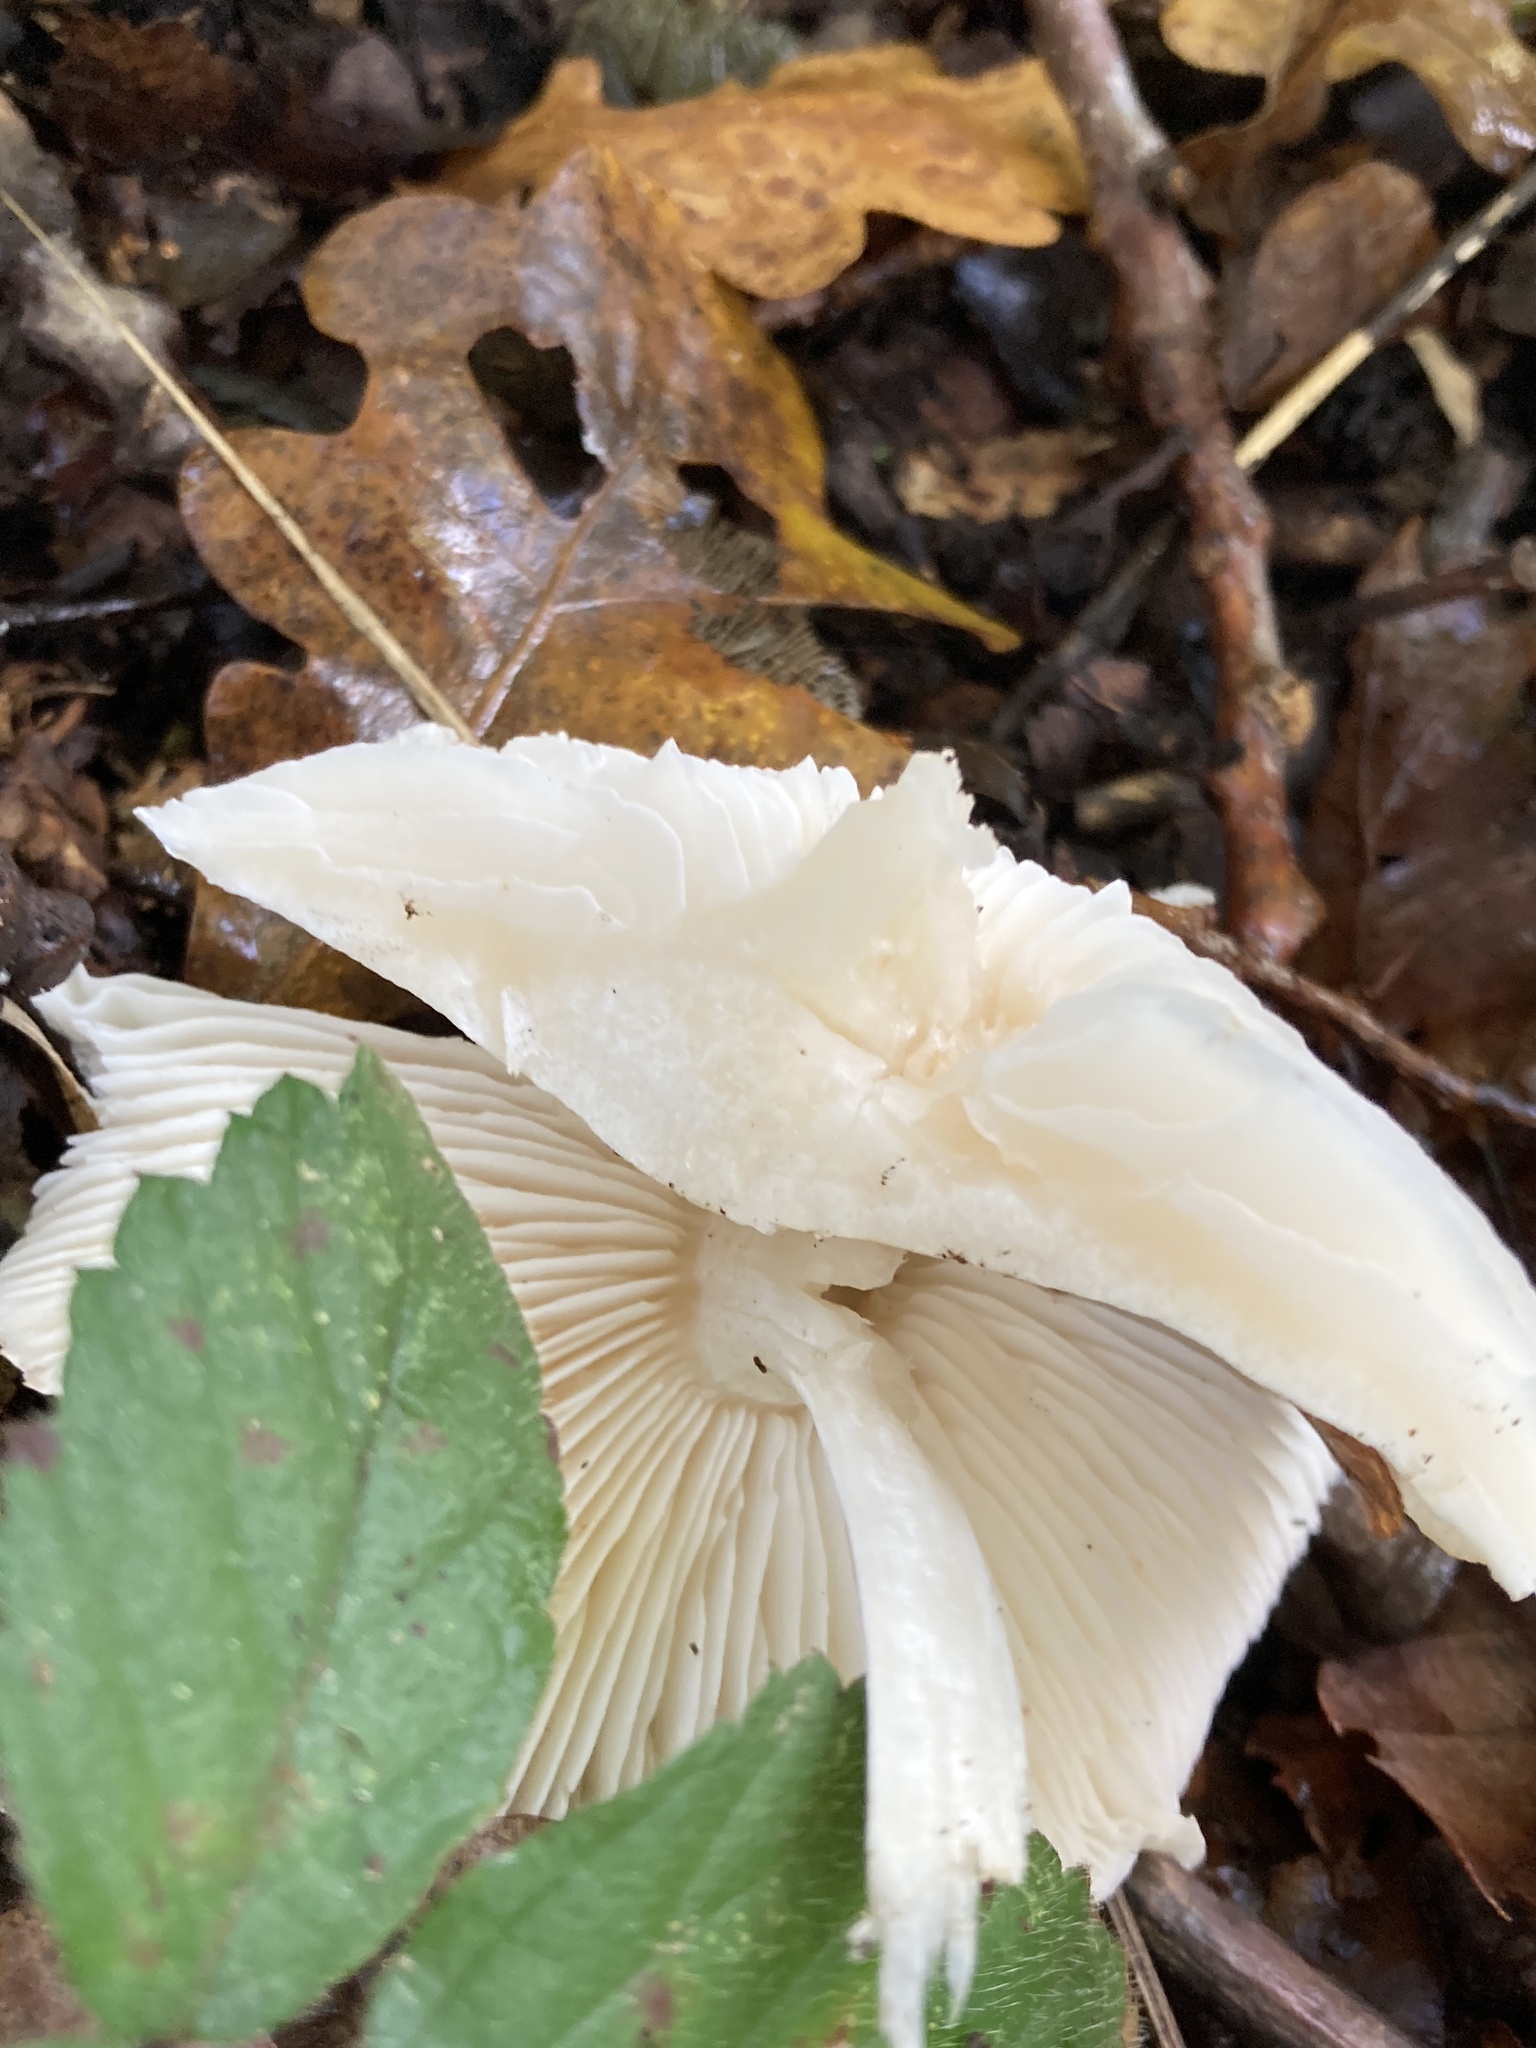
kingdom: Fungi
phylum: Basidiomycota
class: Agaricomycetes
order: Agaricales
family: Tricholomataceae
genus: Tricholoma
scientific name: Tricholoma album
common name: White knight
